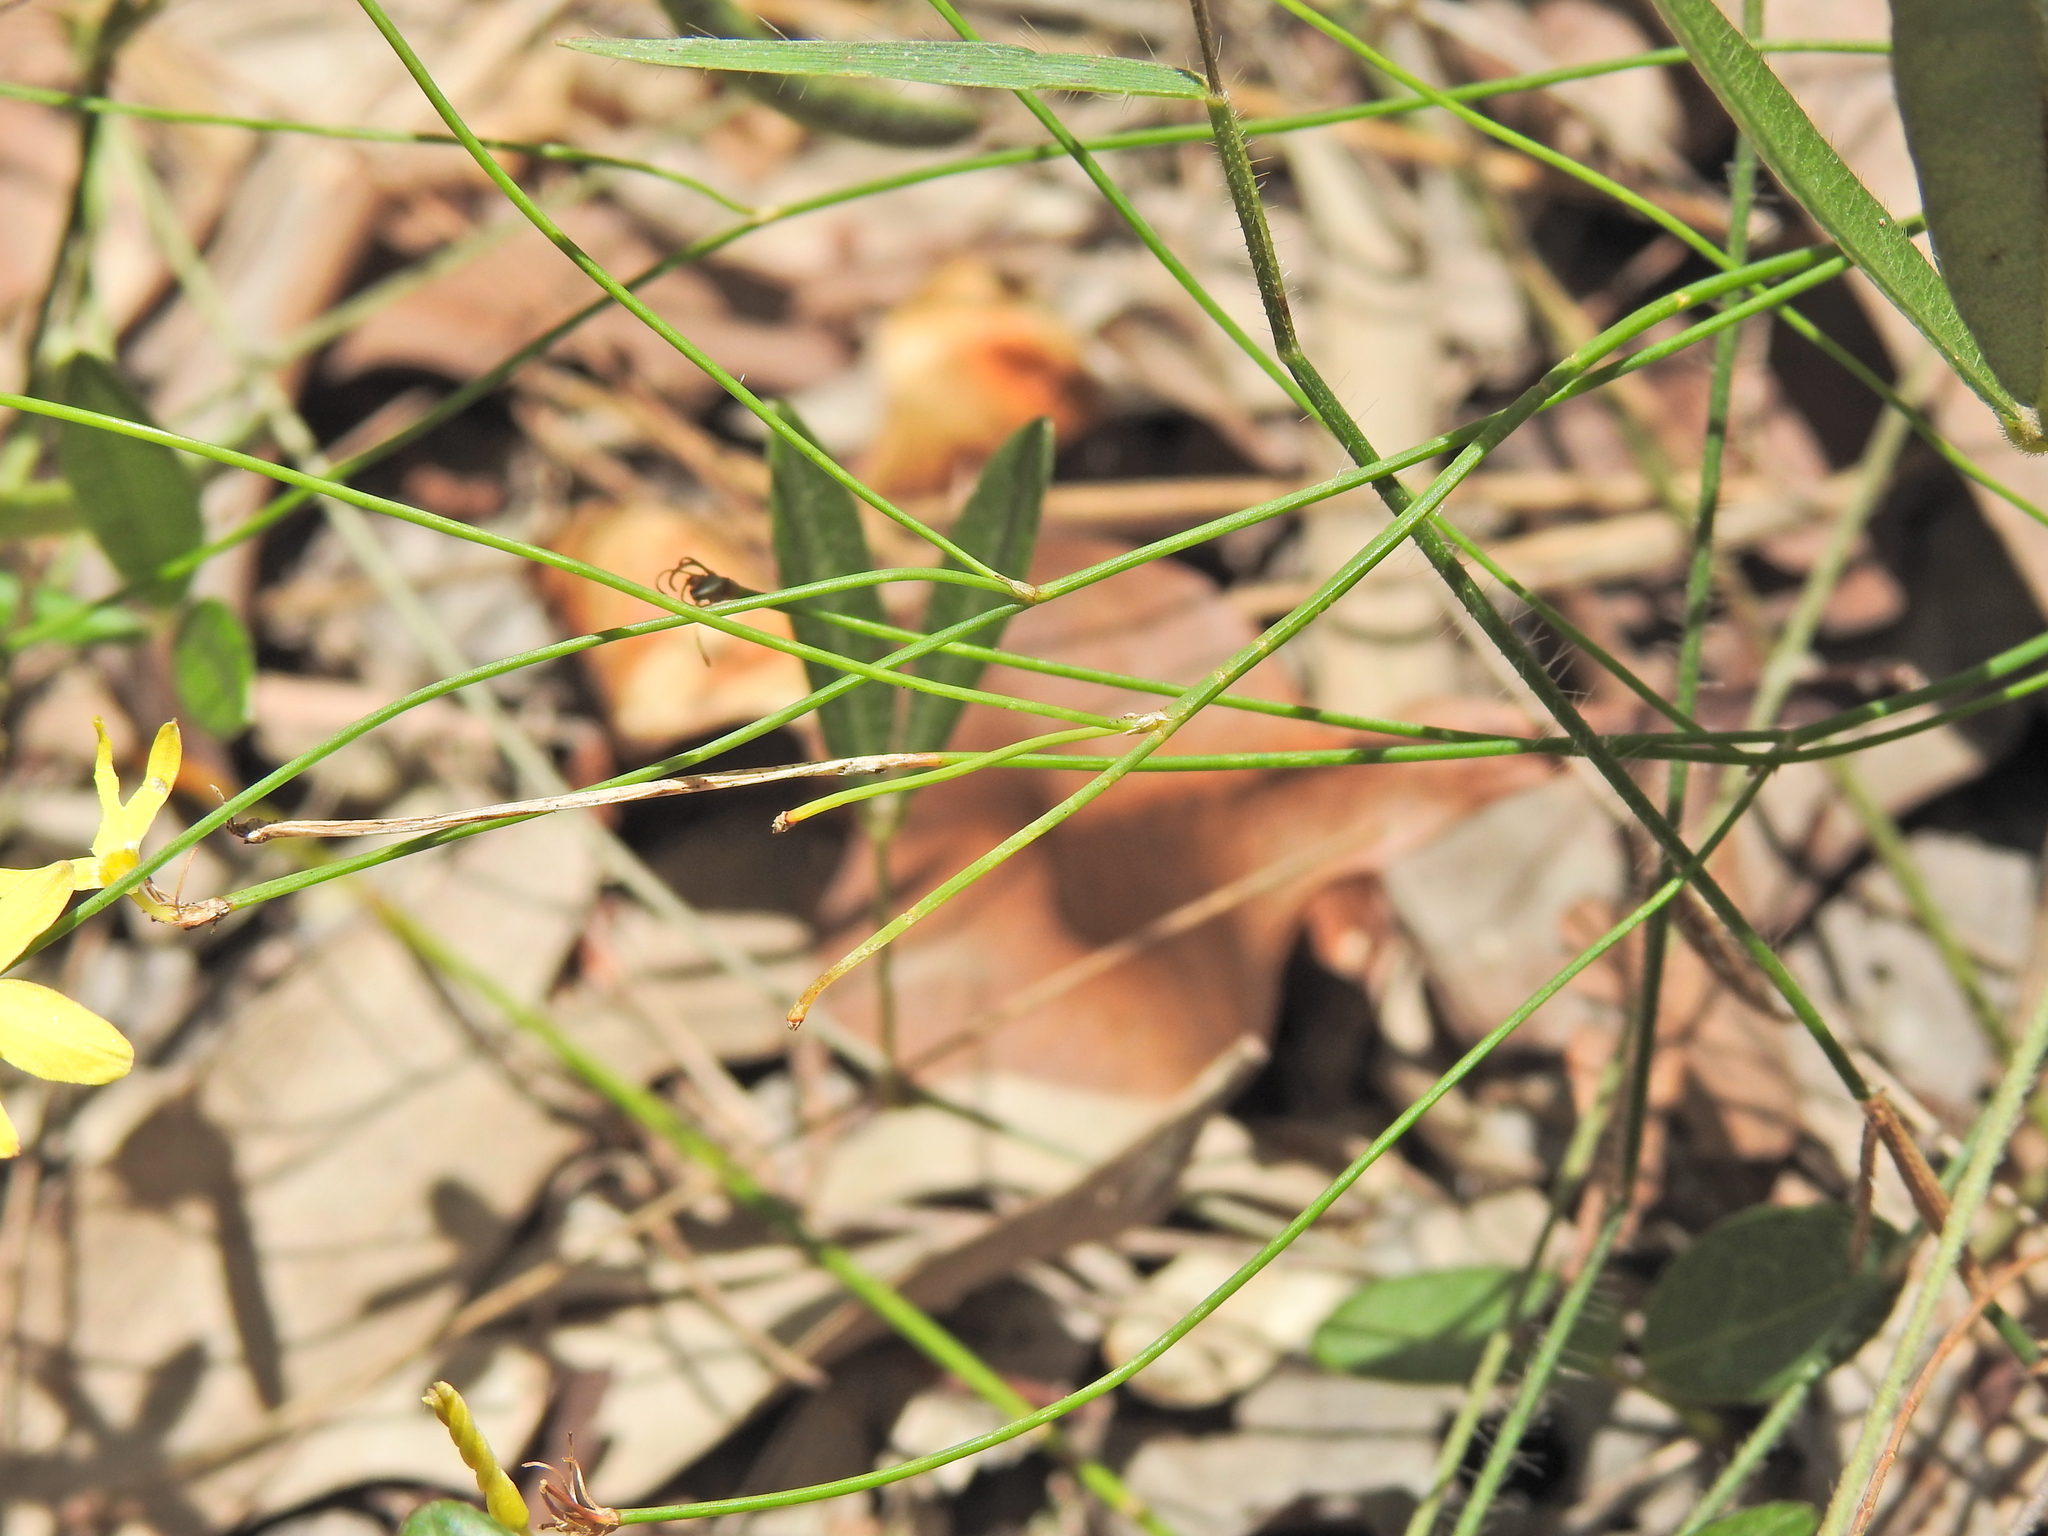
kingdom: Plantae
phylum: Tracheophyta
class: Liliopsida
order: Asparagales
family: Asphodelaceae
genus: Tricoryne
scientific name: Tricoryne elatior
